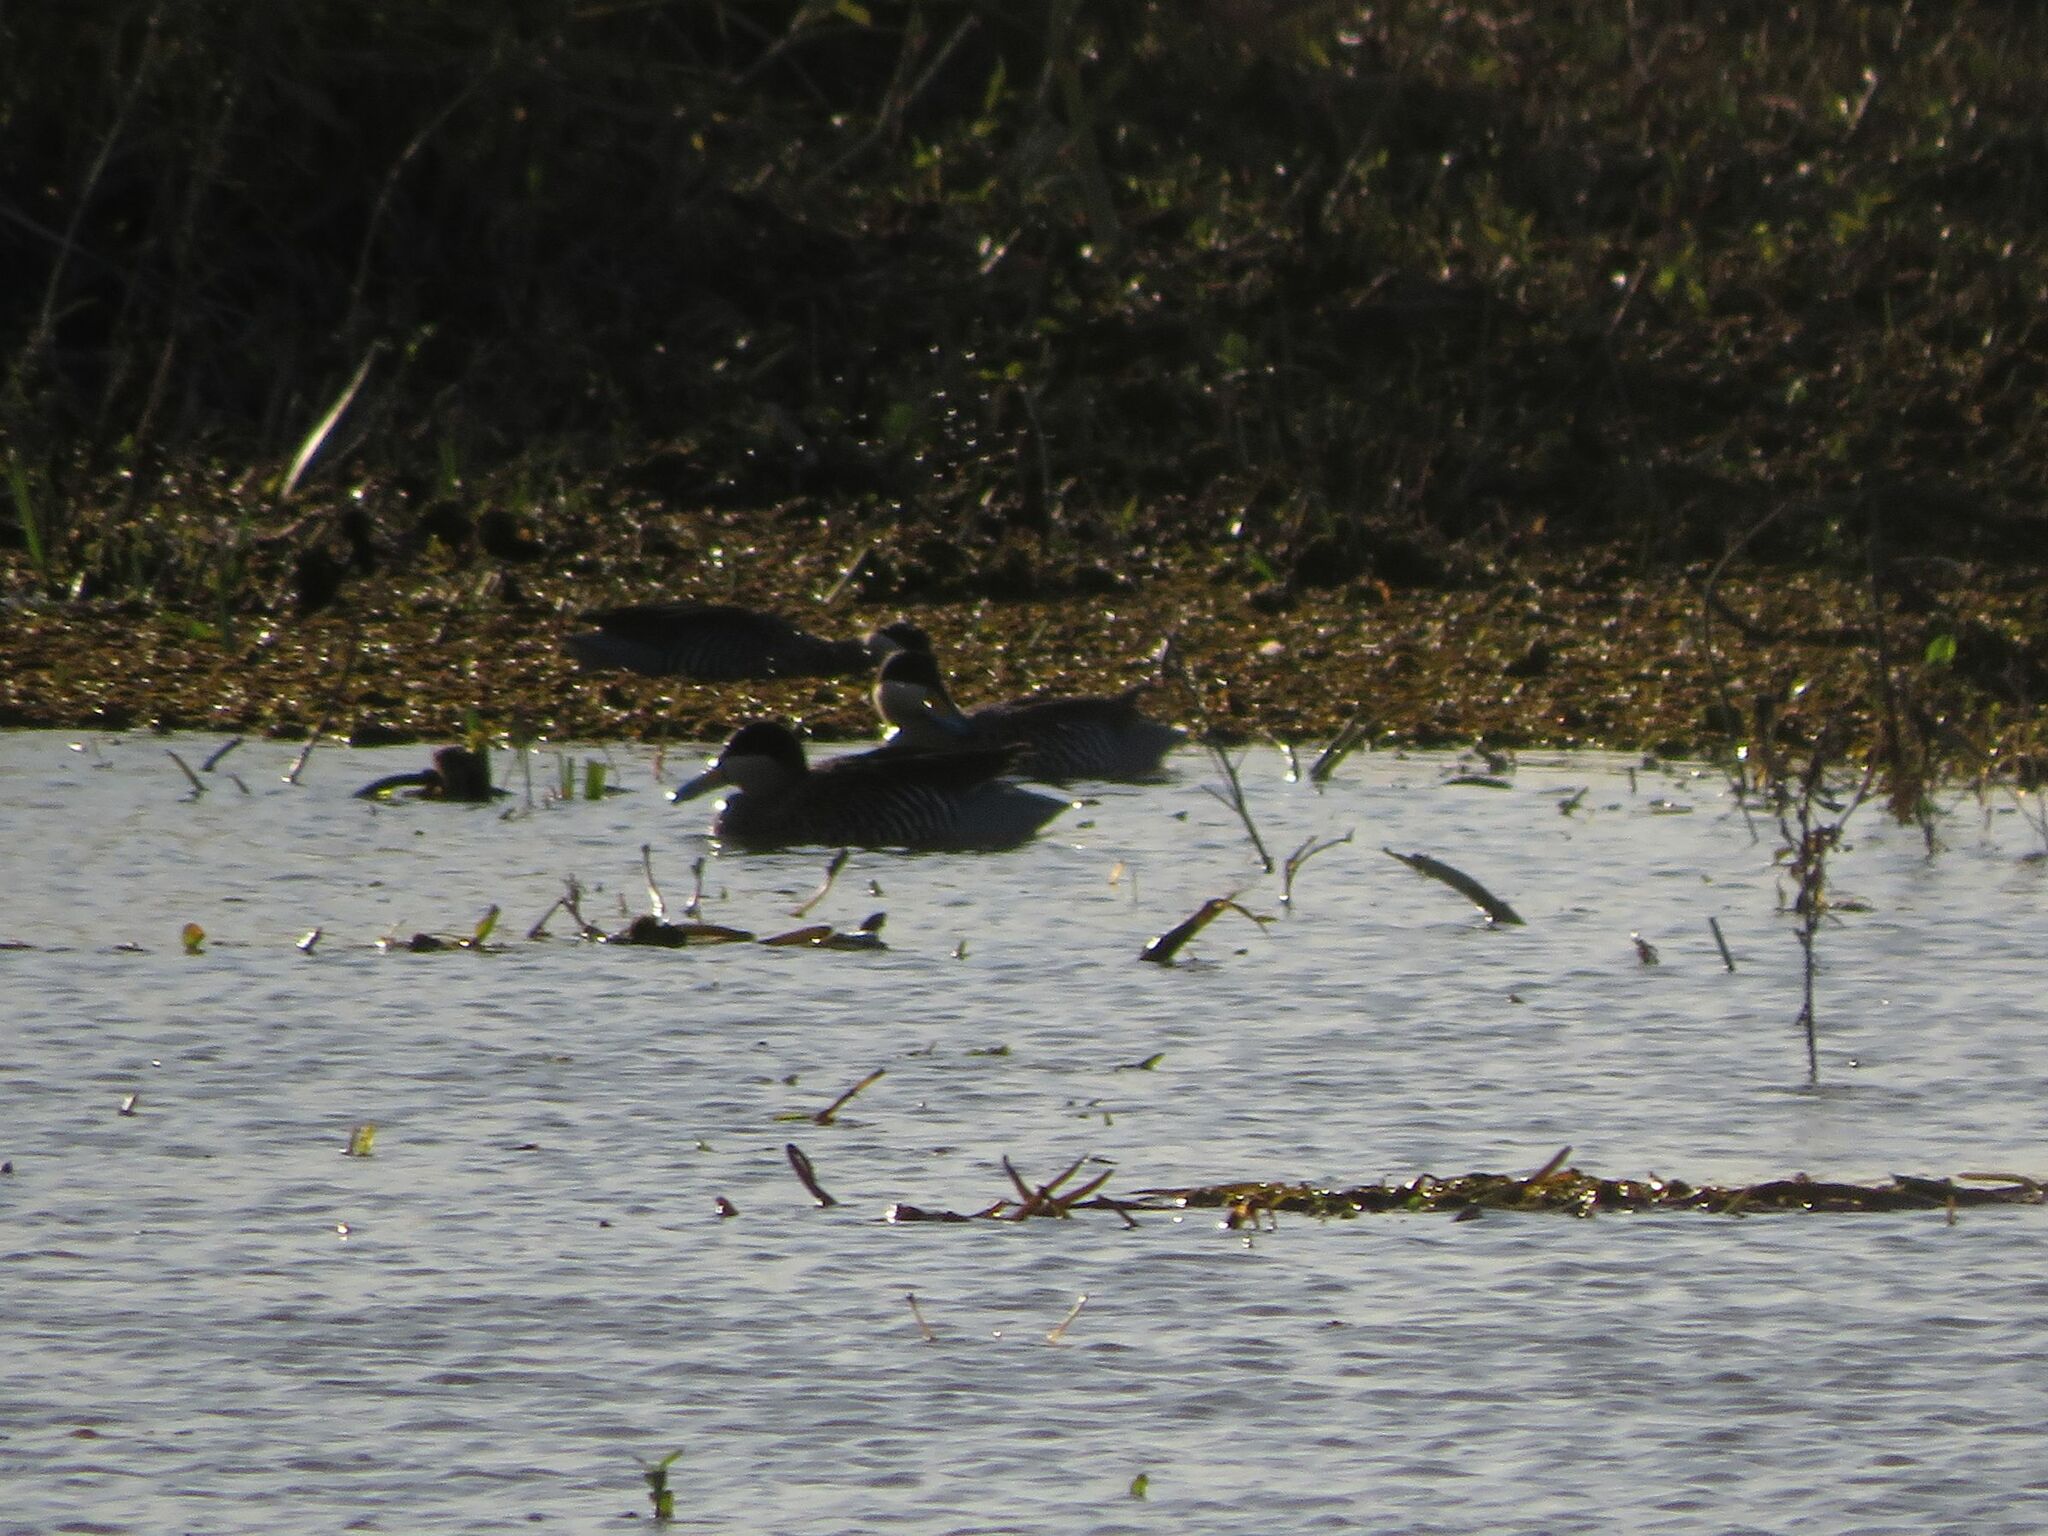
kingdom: Animalia
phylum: Chordata
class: Aves
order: Anseriformes
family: Anatidae
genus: Spatula
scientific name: Spatula versicolor
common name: Silver teal
